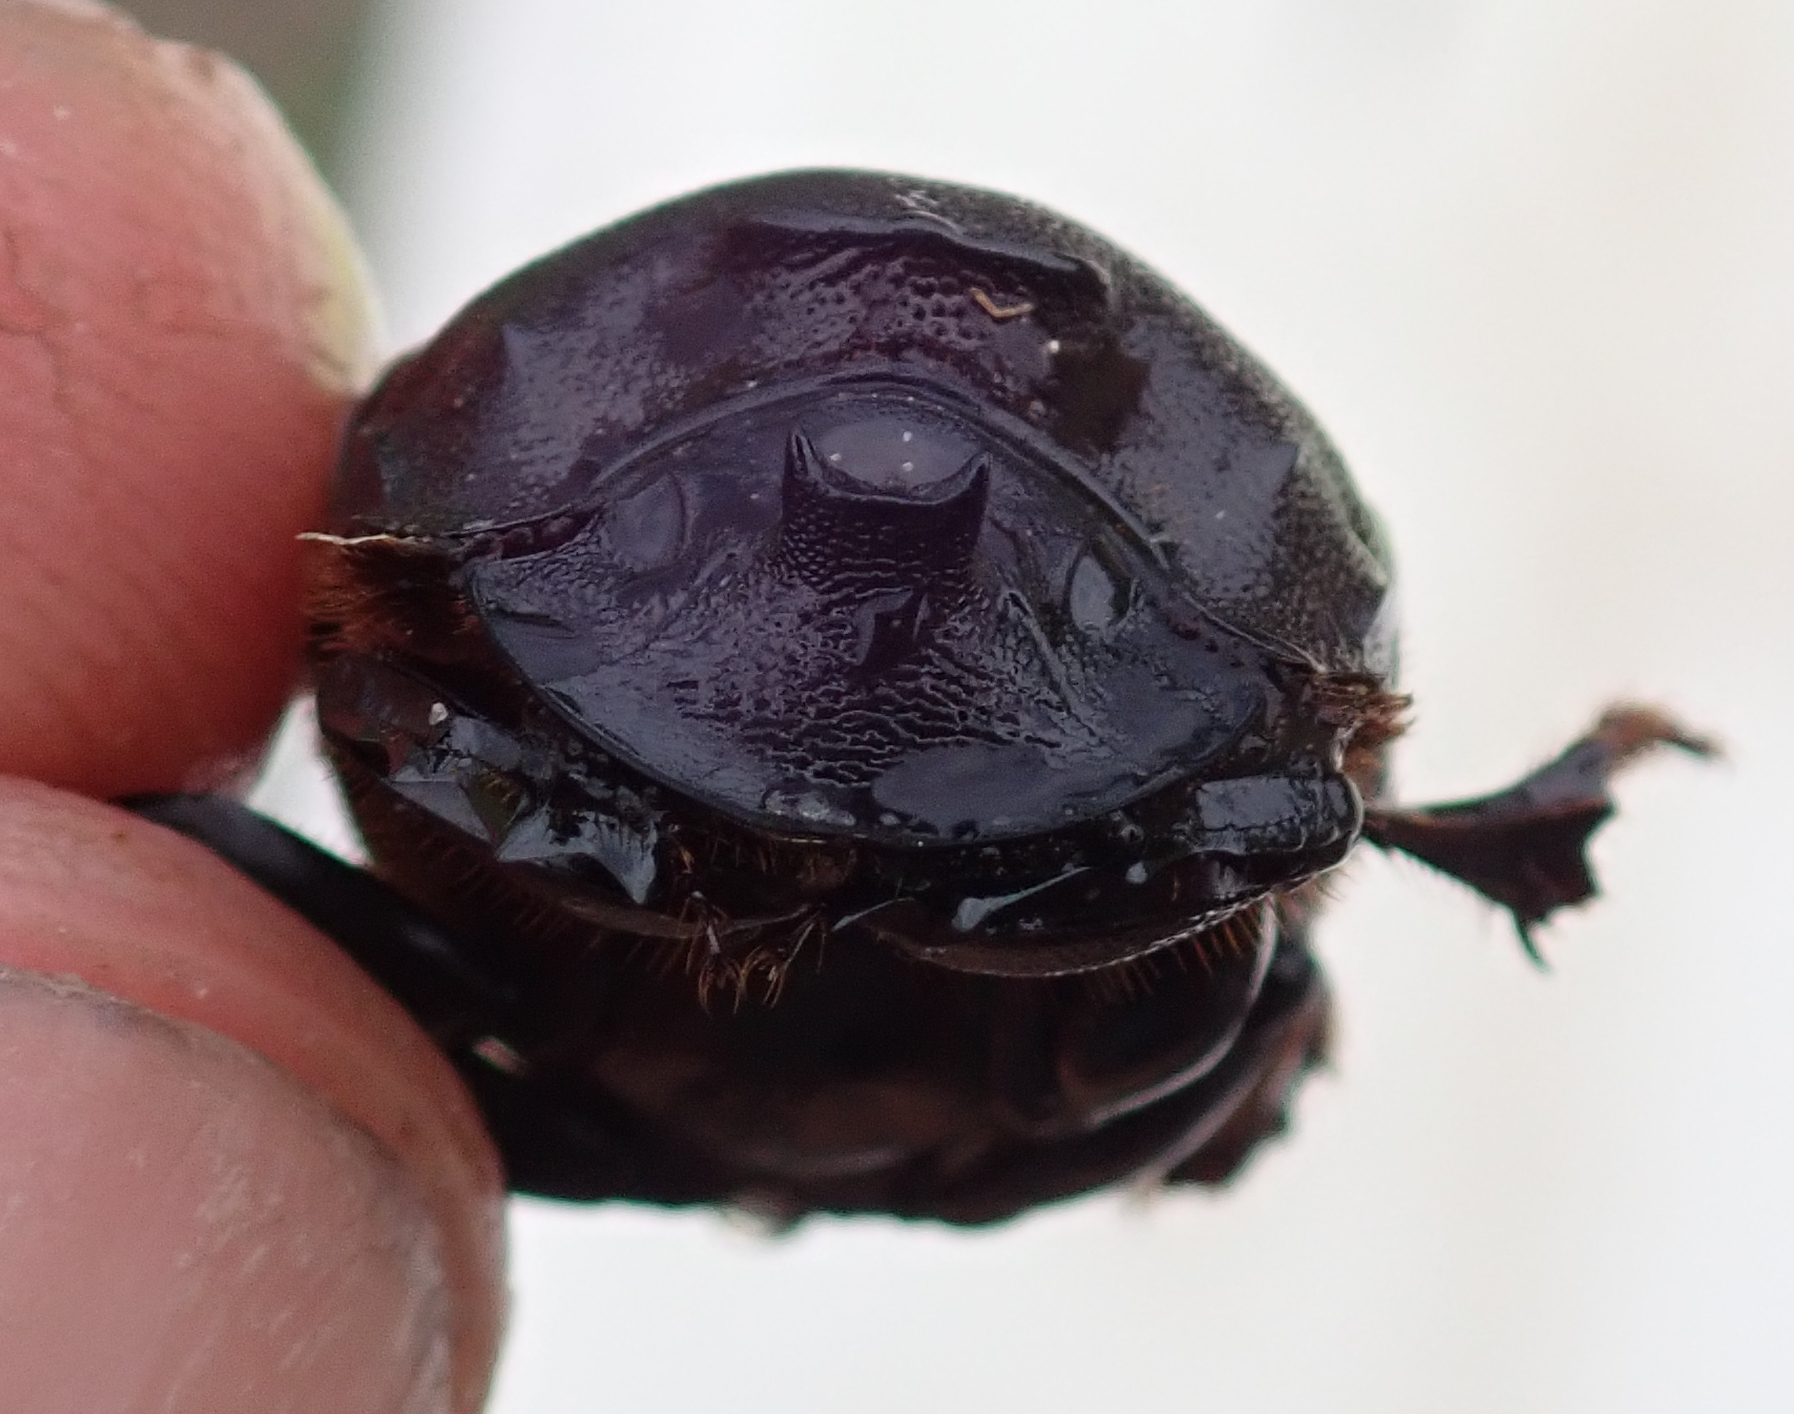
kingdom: Animalia
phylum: Arthropoda
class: Insecta
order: Coleoptera
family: Scarabaeidae
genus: Copris
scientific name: Copris elphenor
